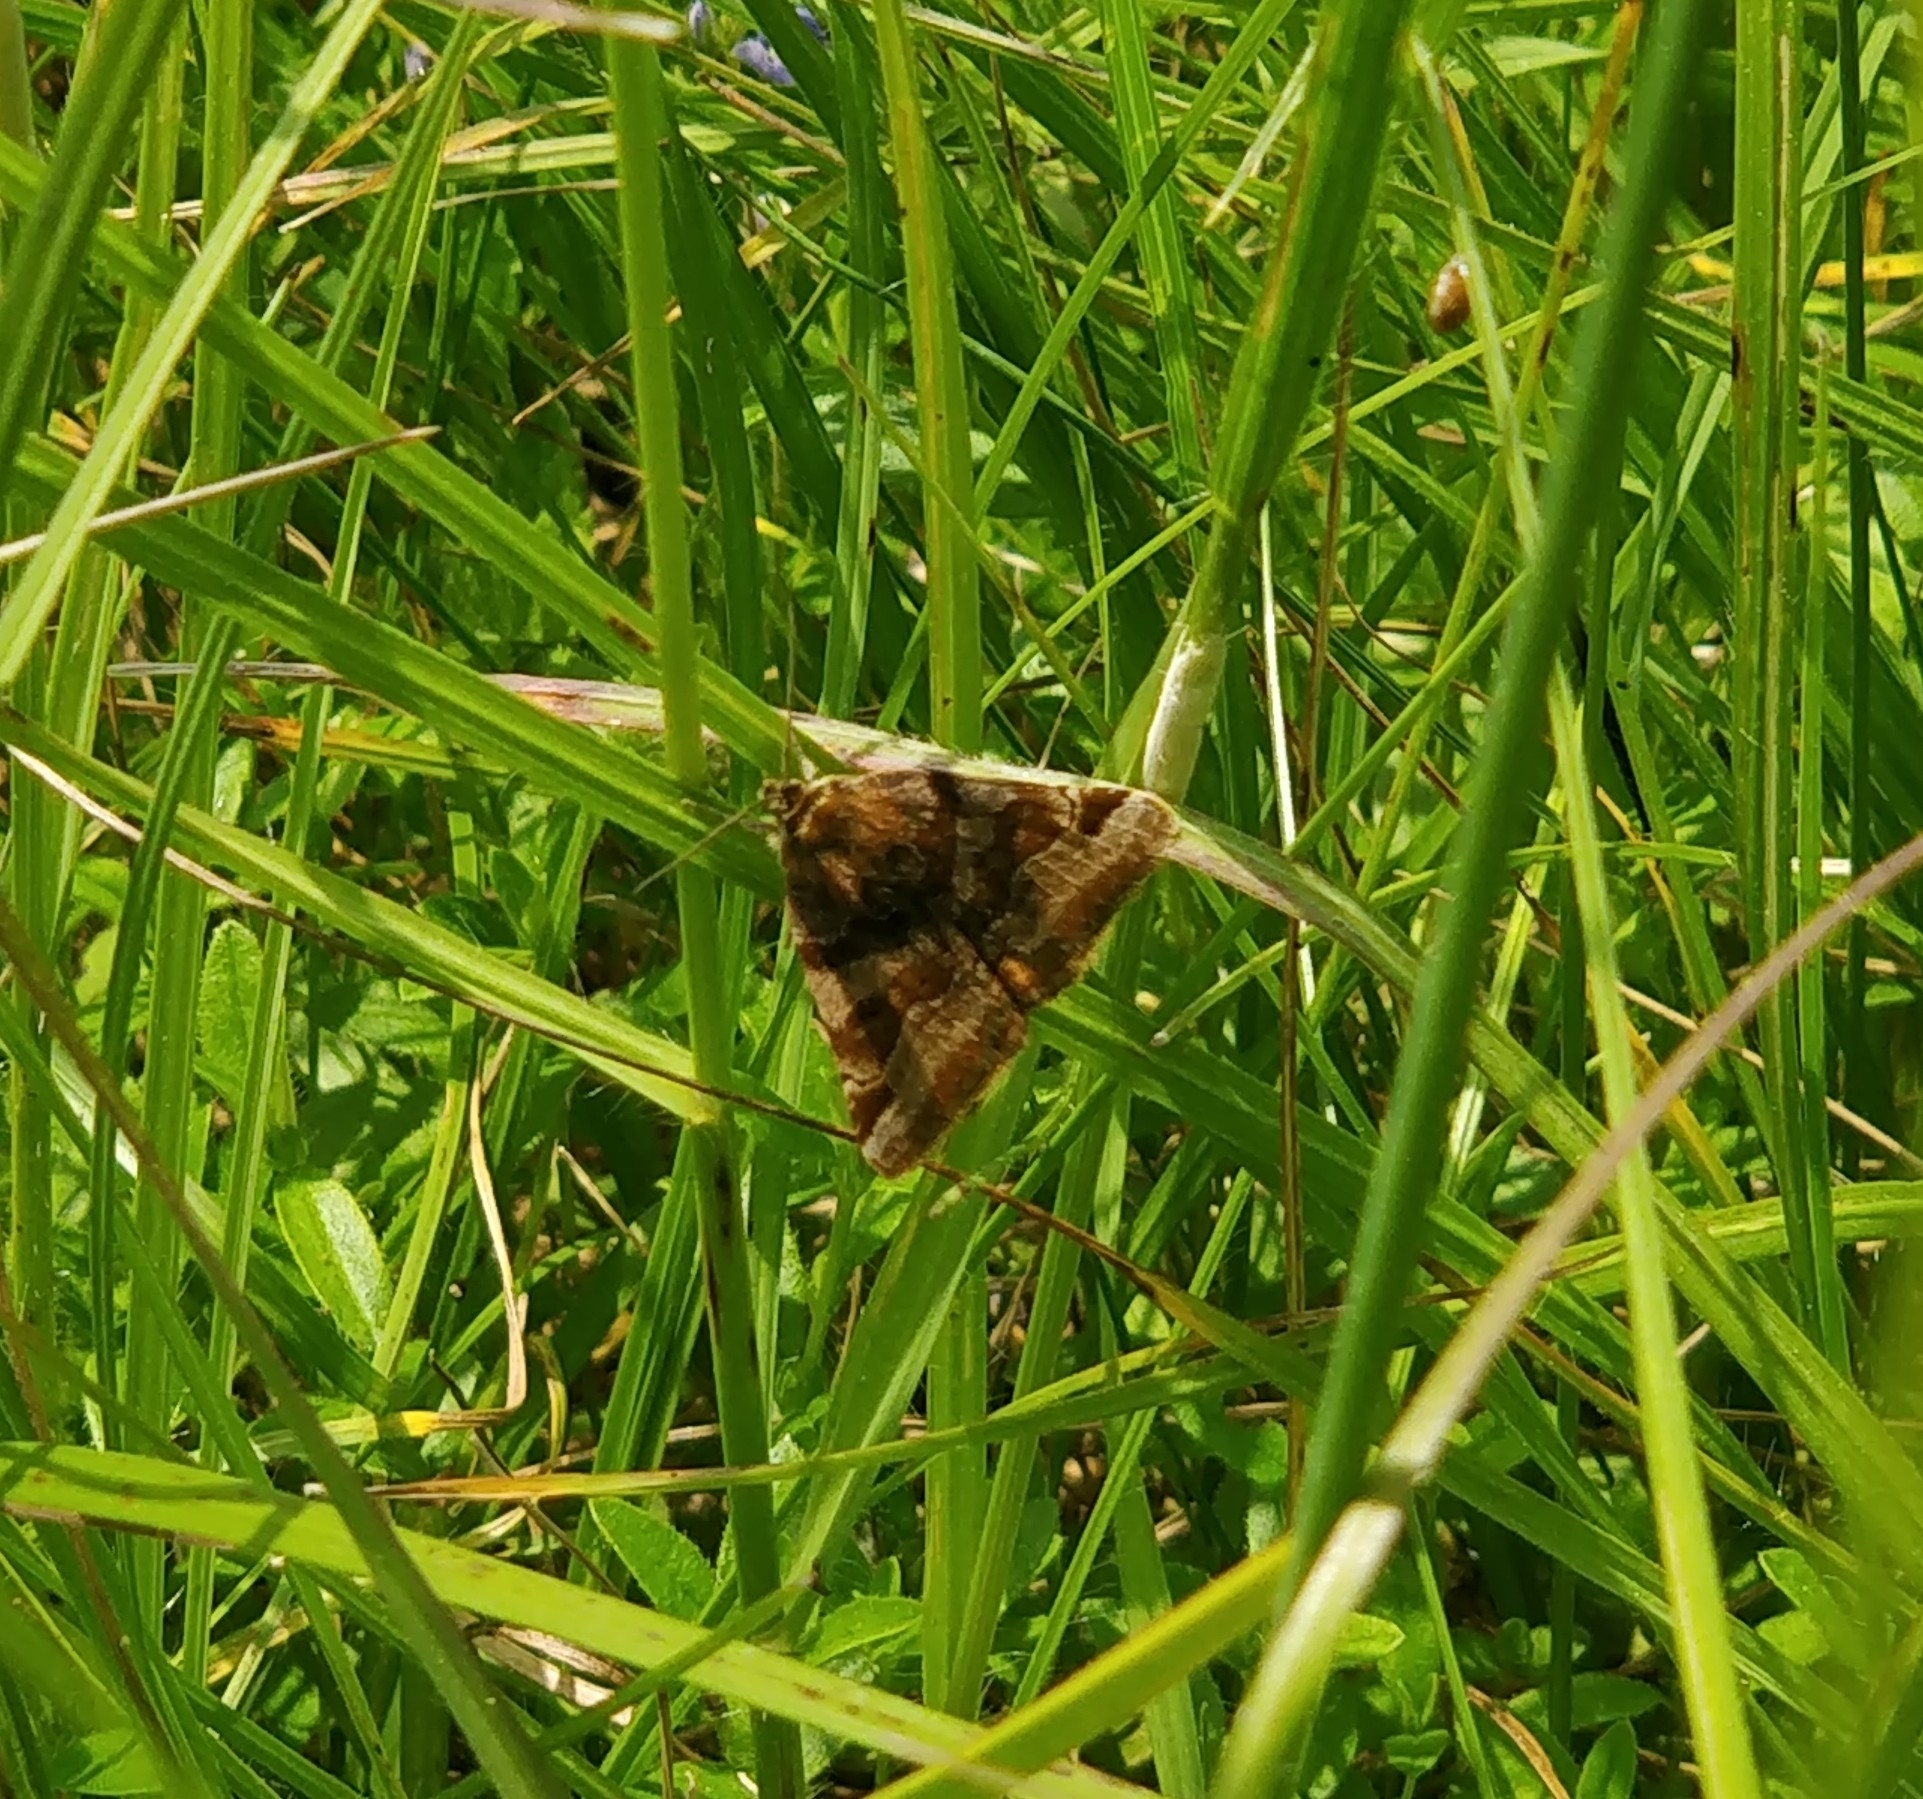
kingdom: Animalia
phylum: Arthropoda
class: Insecta
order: Lepidoptera
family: Erebidae
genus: Euclidia
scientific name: Euclidia glyphica
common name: Burnet companion
